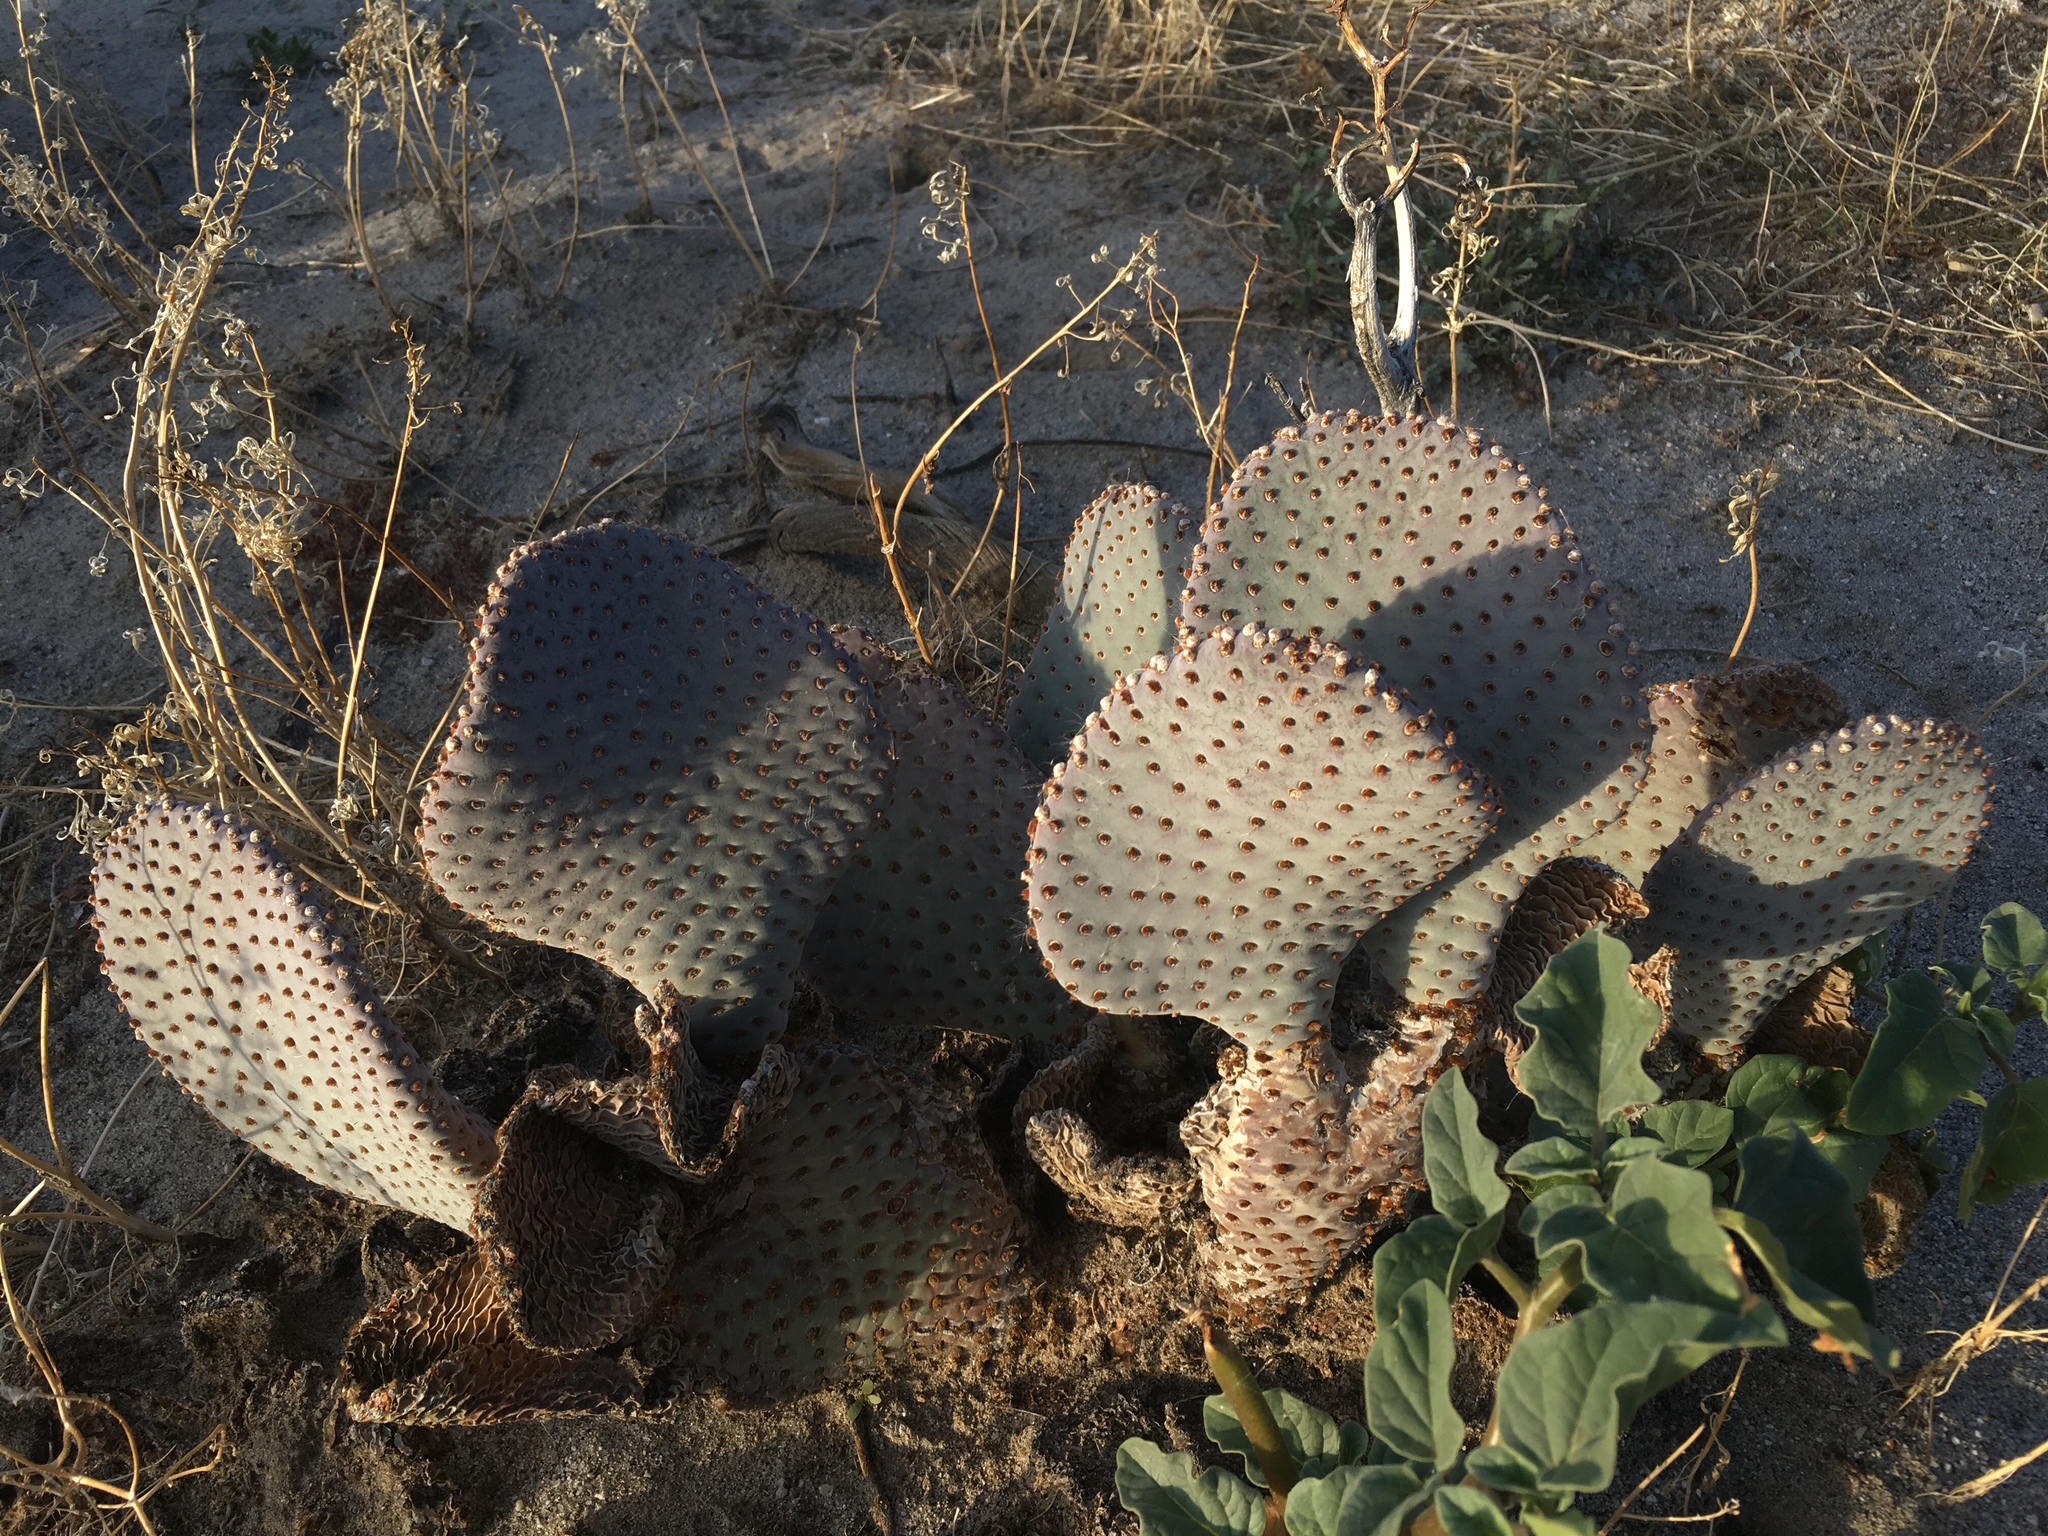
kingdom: Plantae
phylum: Tracheophyta
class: Magnoliopsida
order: Caryophyllales
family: Cactaceae
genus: Opuntia
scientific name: Opuntia basilaris
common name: Beavertail prickly-pear
